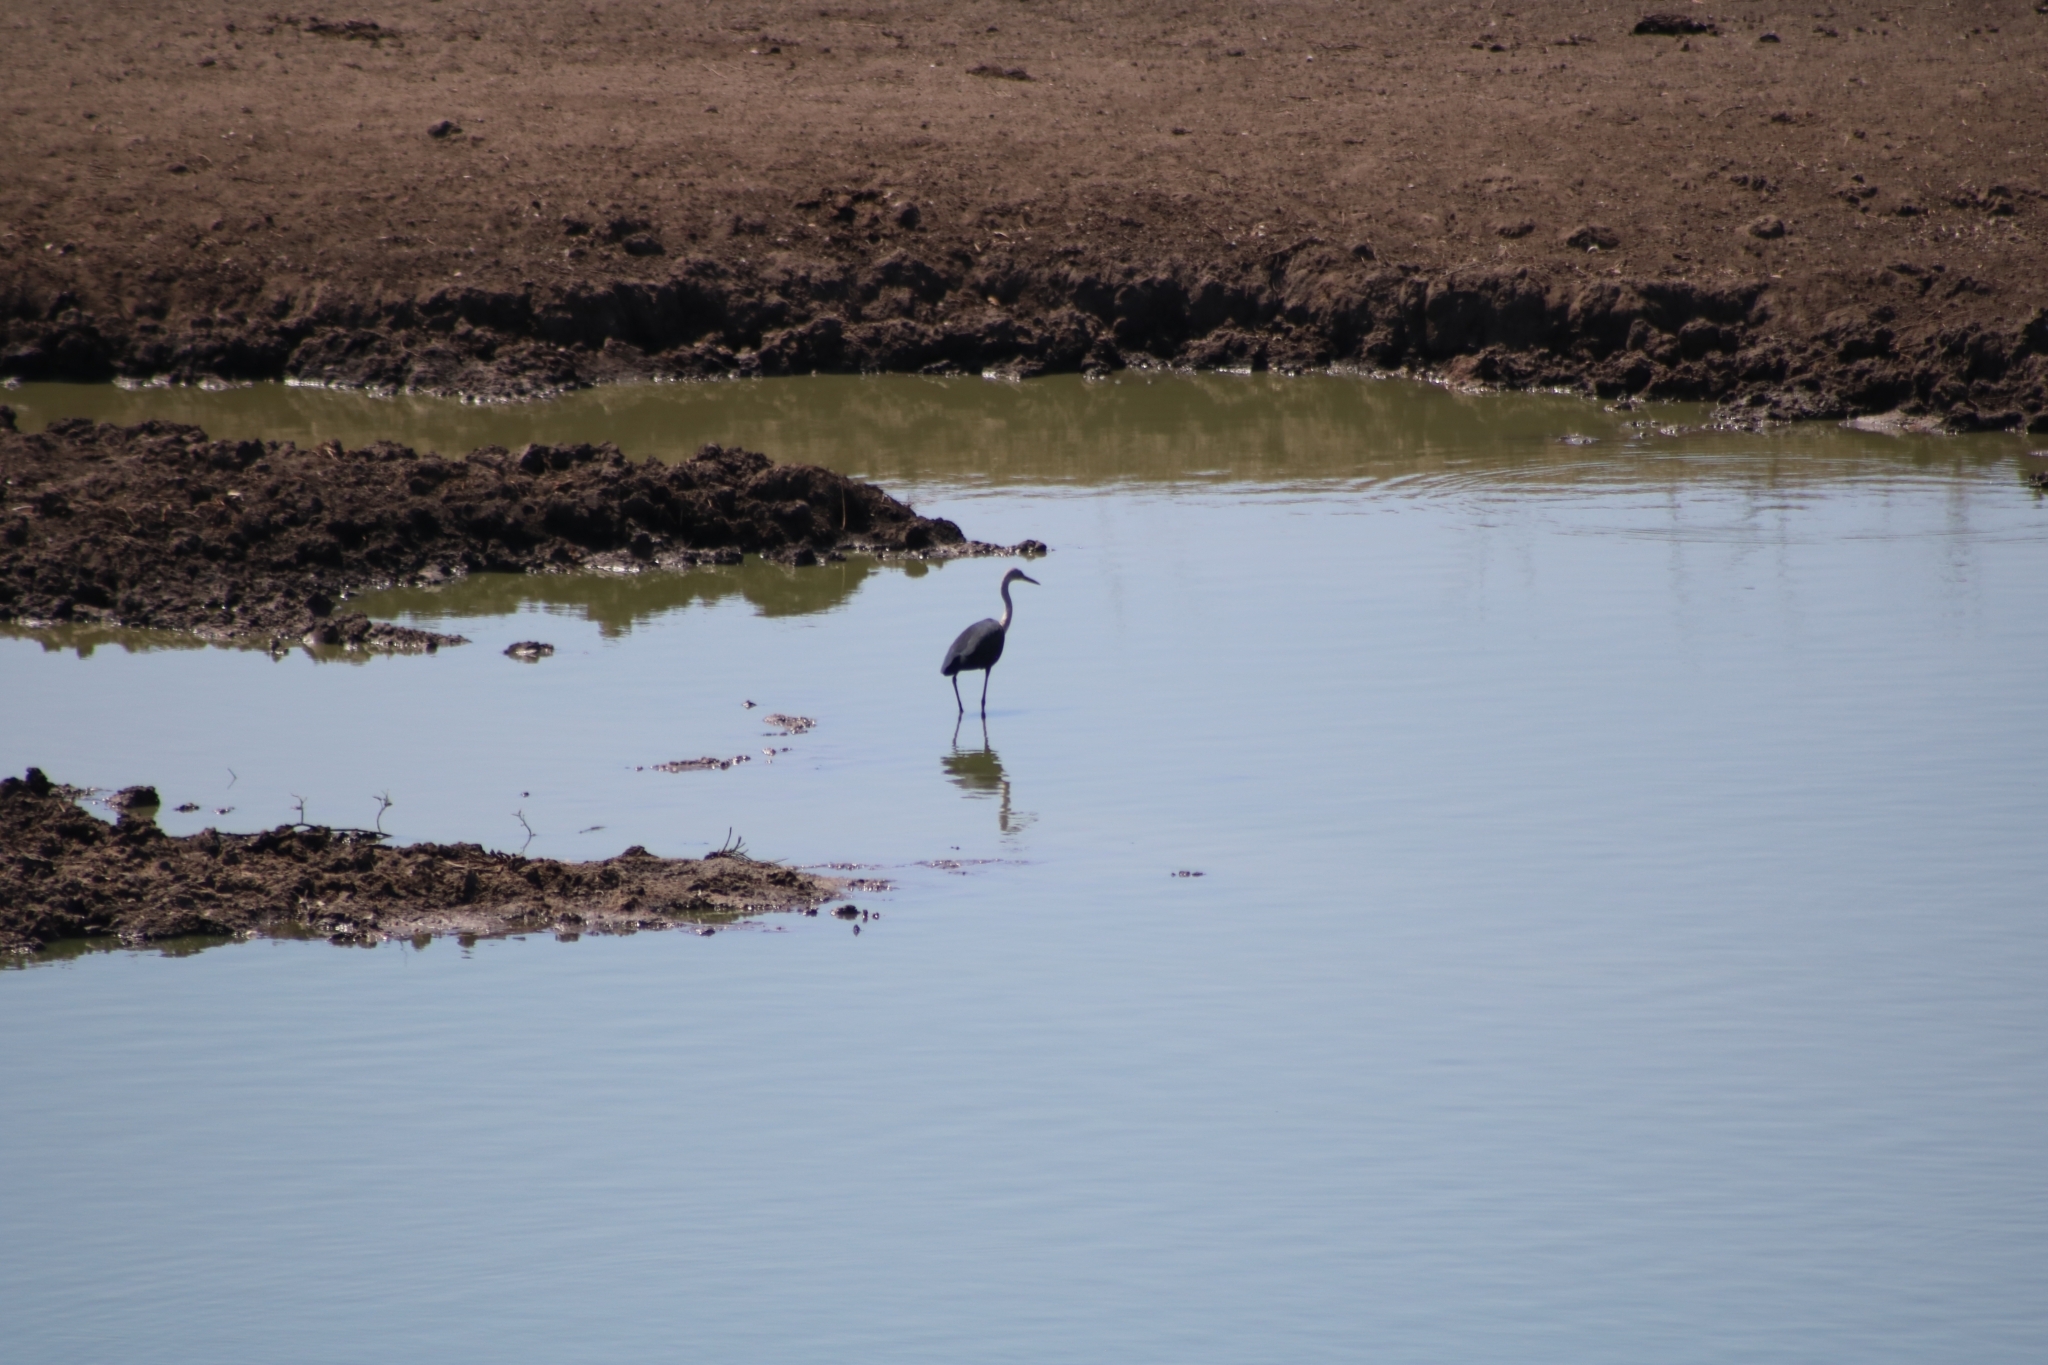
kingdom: Animalia
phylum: Chordata
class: Aves
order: Pelecaniformes
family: Ardeidae
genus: Ardea
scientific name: Ardea pacifica
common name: White-necked heron
